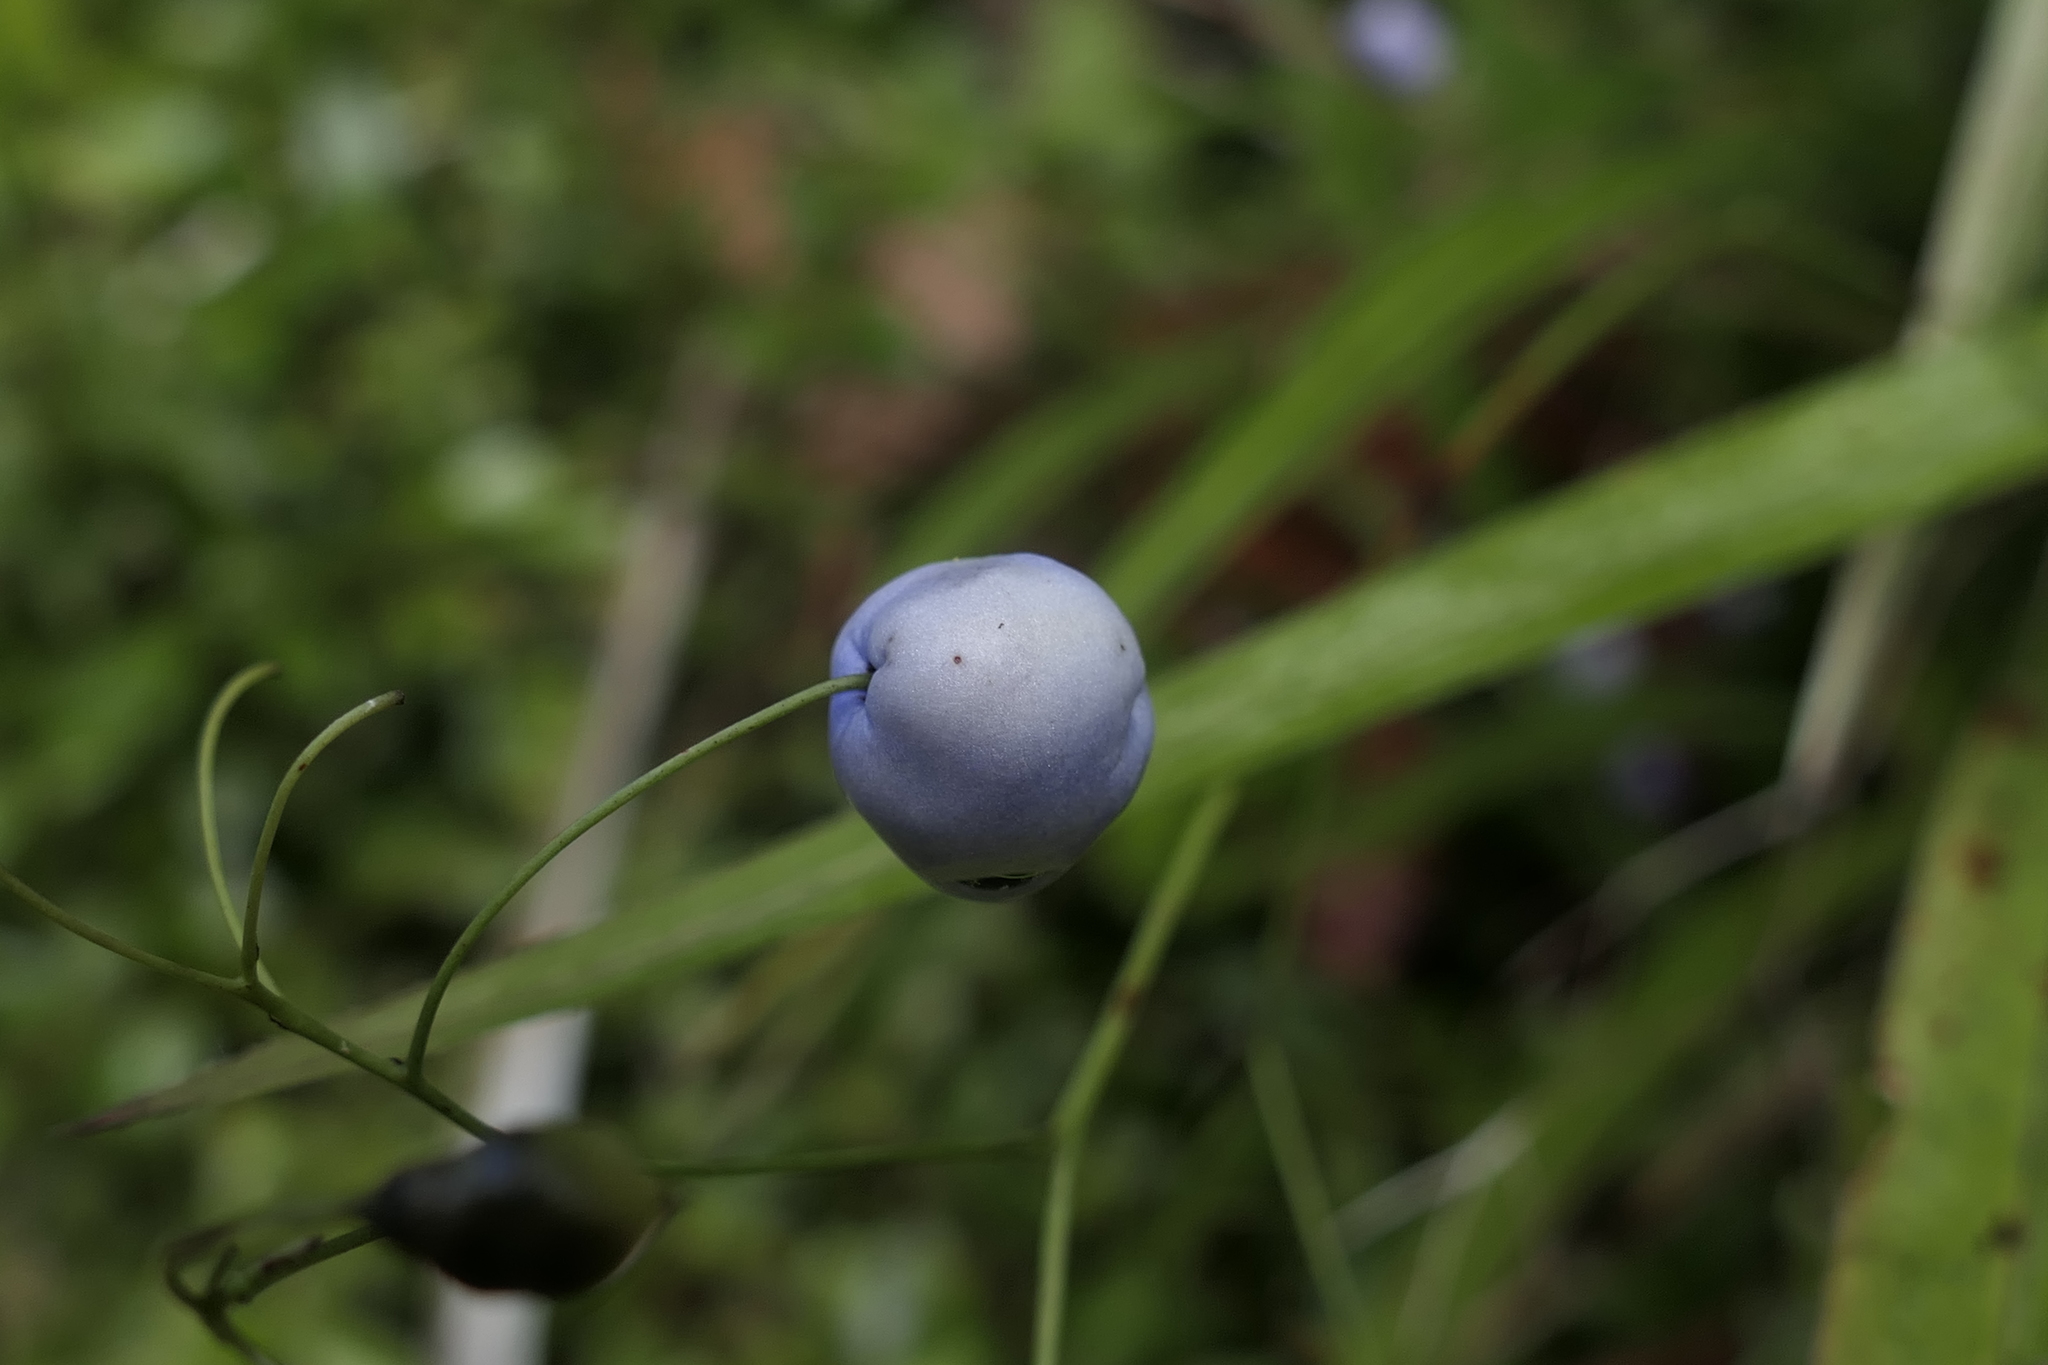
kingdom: Plantae
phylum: Tracheophyta
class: Liliopsida
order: Asparagales
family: Asphodelaceae
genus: Dianella
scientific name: Dianella nigra
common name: New zealand-blueberry
